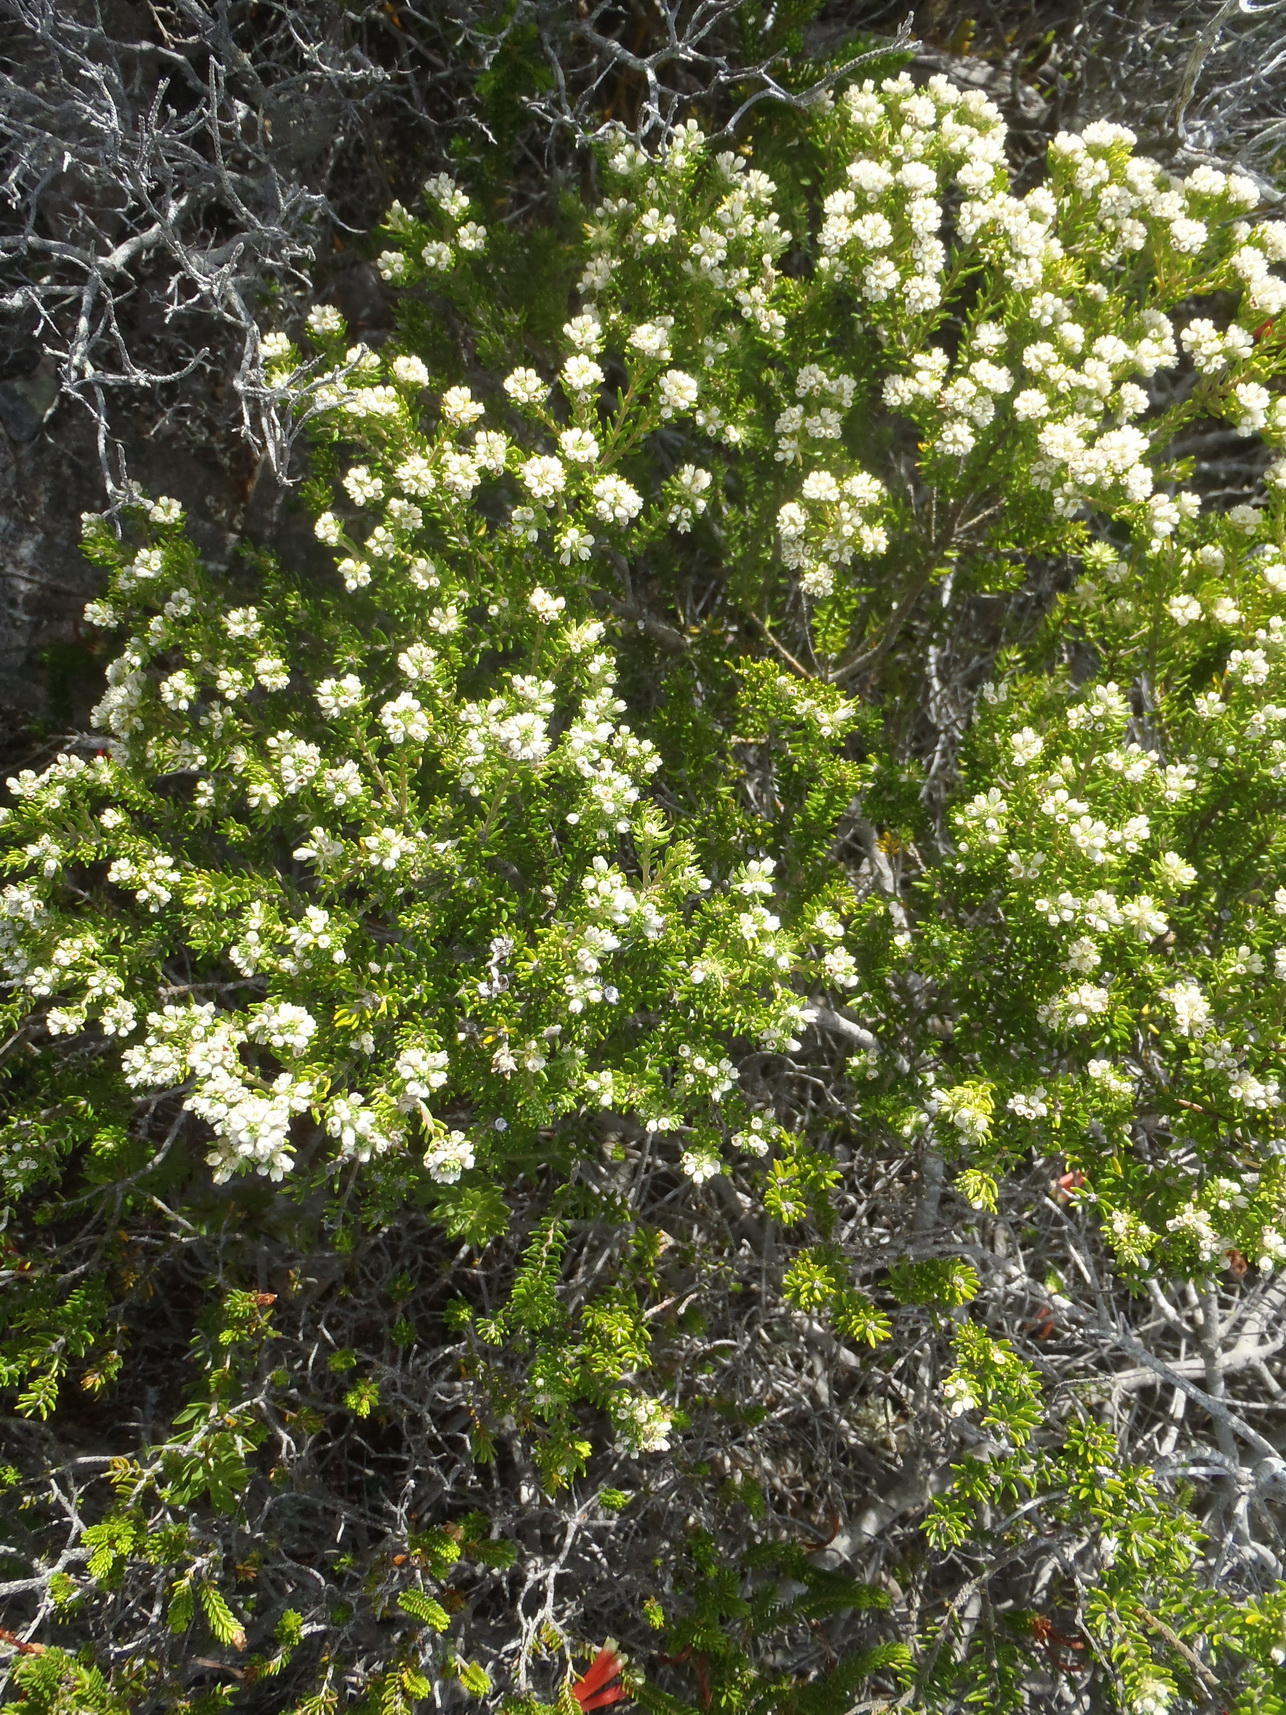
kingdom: Plantae
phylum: Tracheophyta
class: Magnoliopsida
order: Rosales
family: Rhamnaceae
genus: Phylica
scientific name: Phylica axillaris
